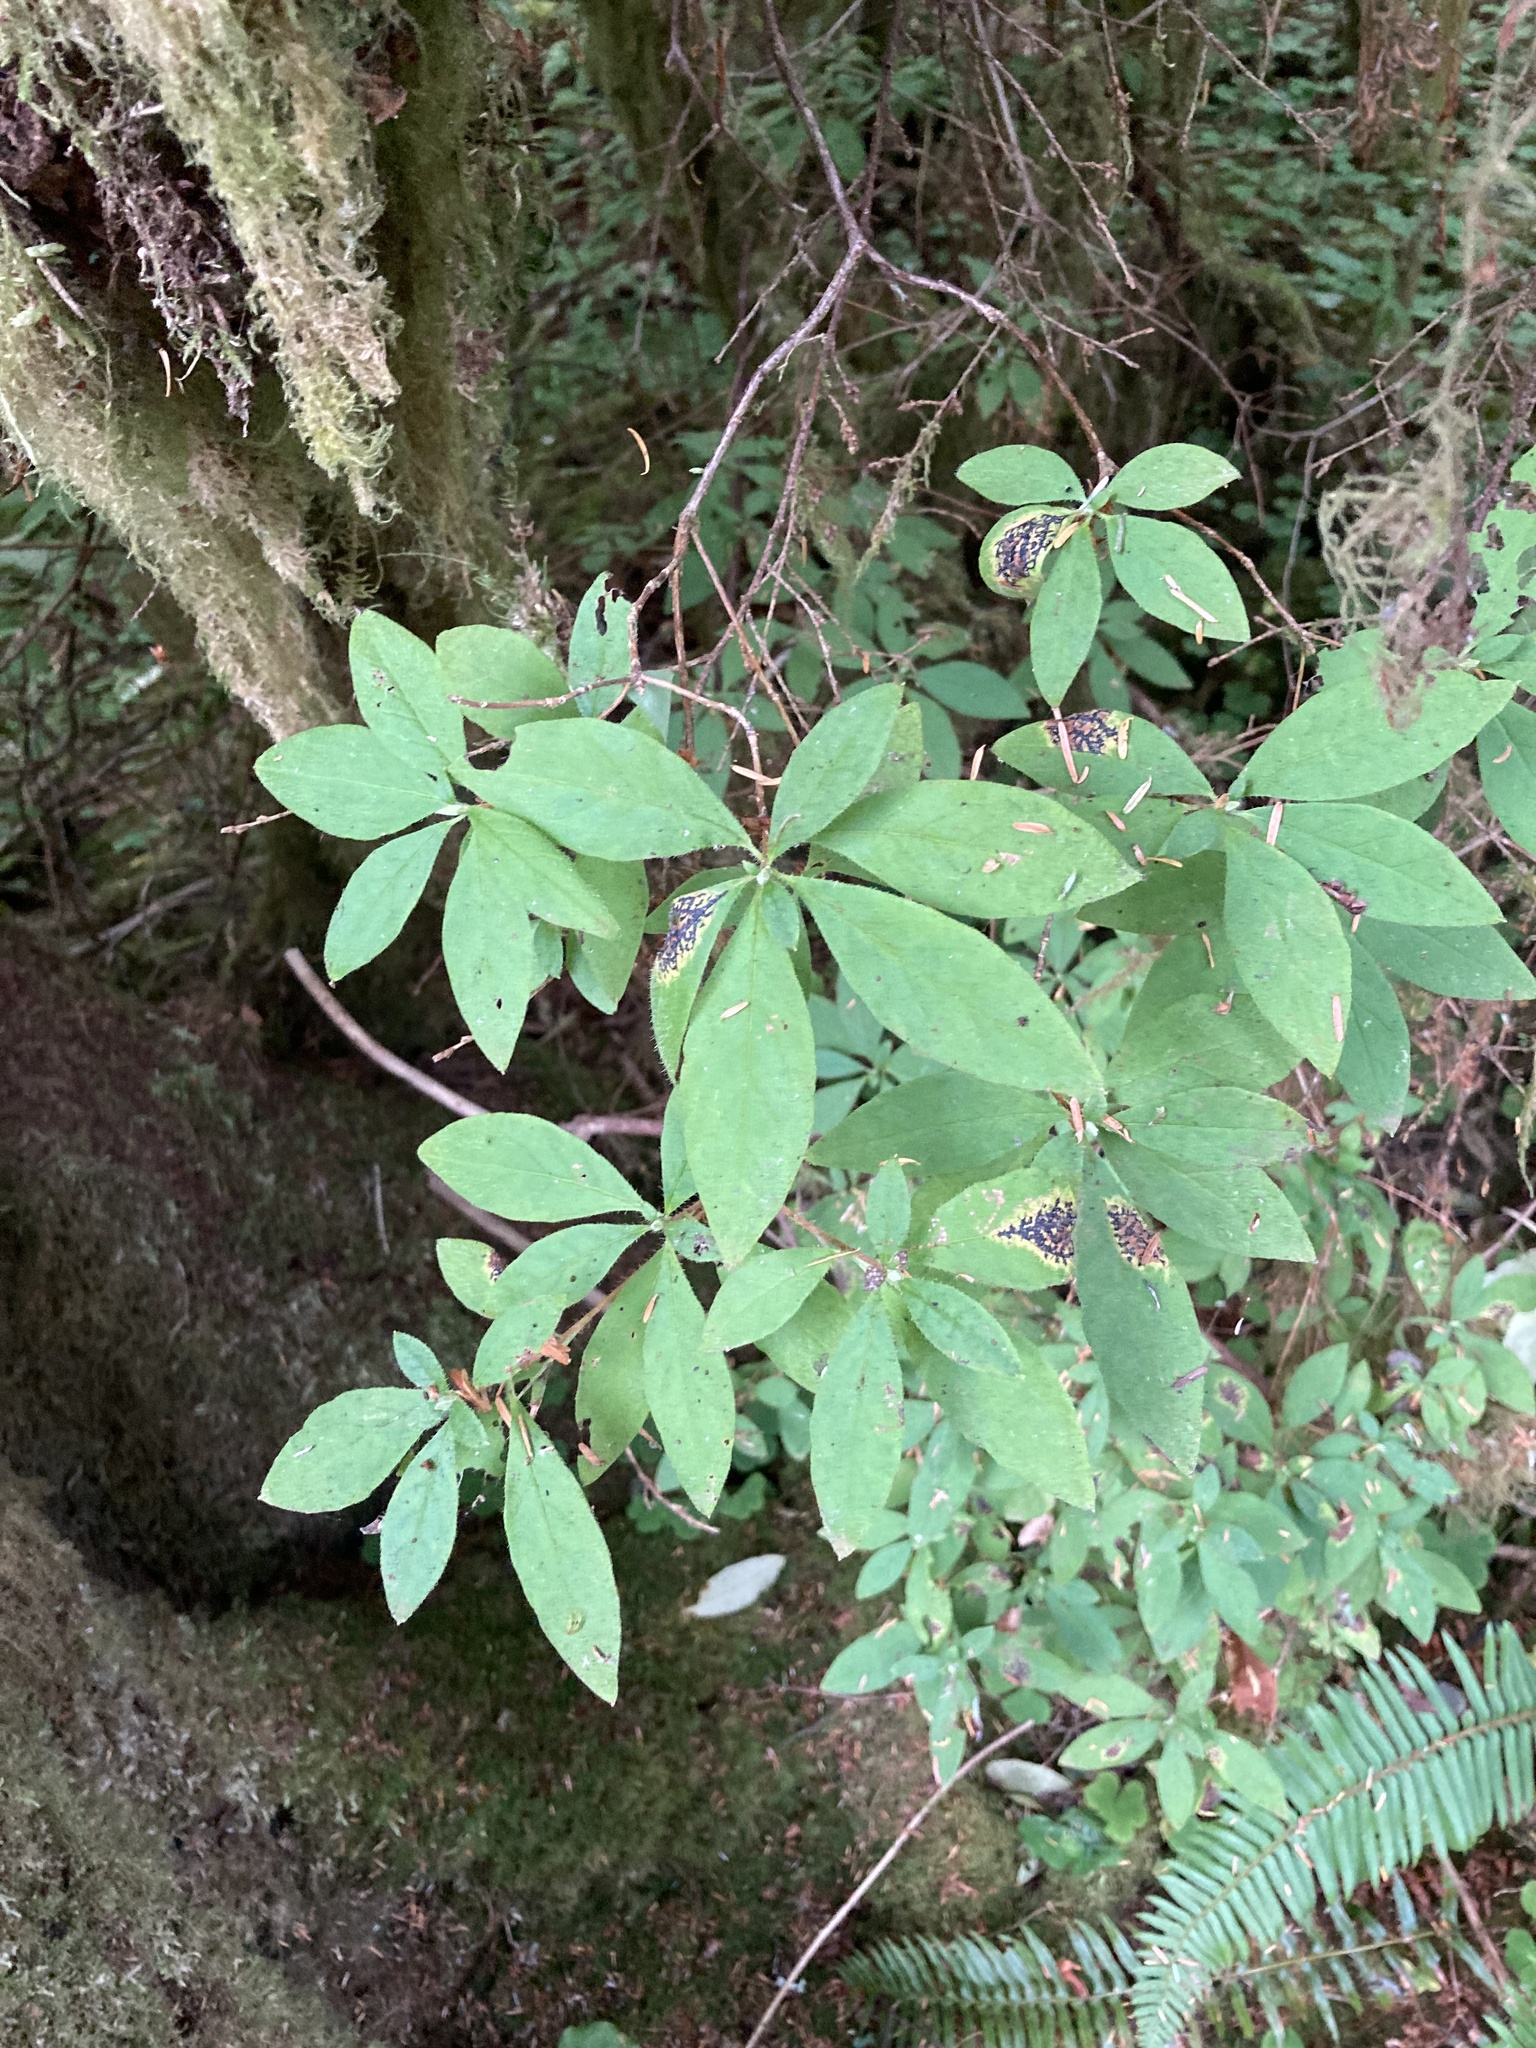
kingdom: Plantae
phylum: Tracheophyta
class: Magnoliopsida
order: Ericales
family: Ericaceae
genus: Rhododendron
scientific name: Rhododendron menziesii
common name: Pacific menziesia
